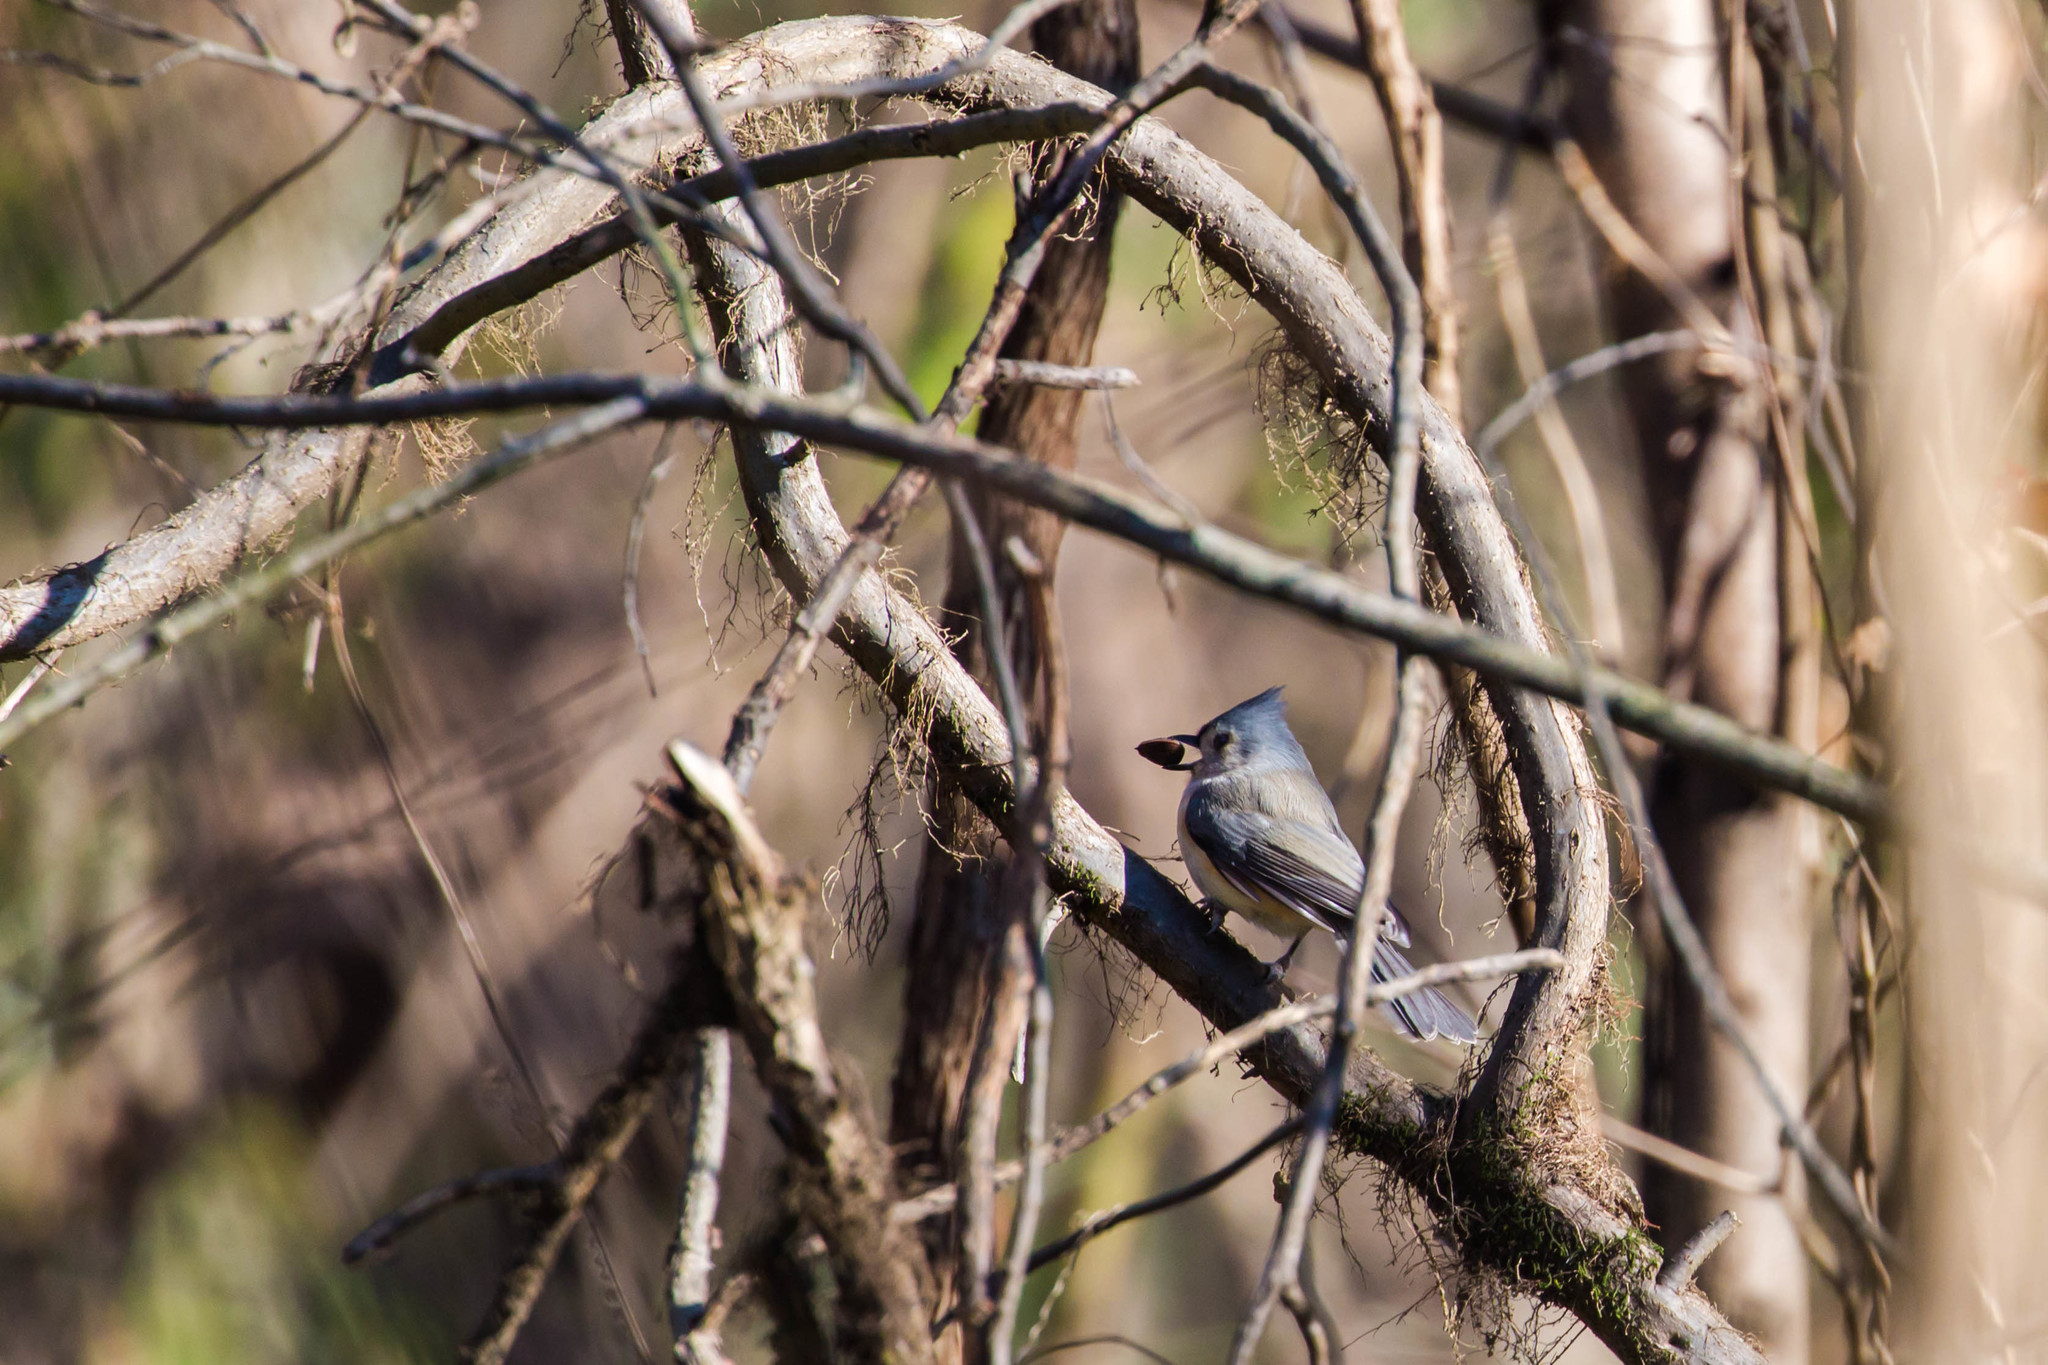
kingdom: Animalia
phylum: Chordata
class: Aves
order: Passeriformes
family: Paridae
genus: Baeolophus
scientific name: Baeolophus bicolor
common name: Tufted titmouse
